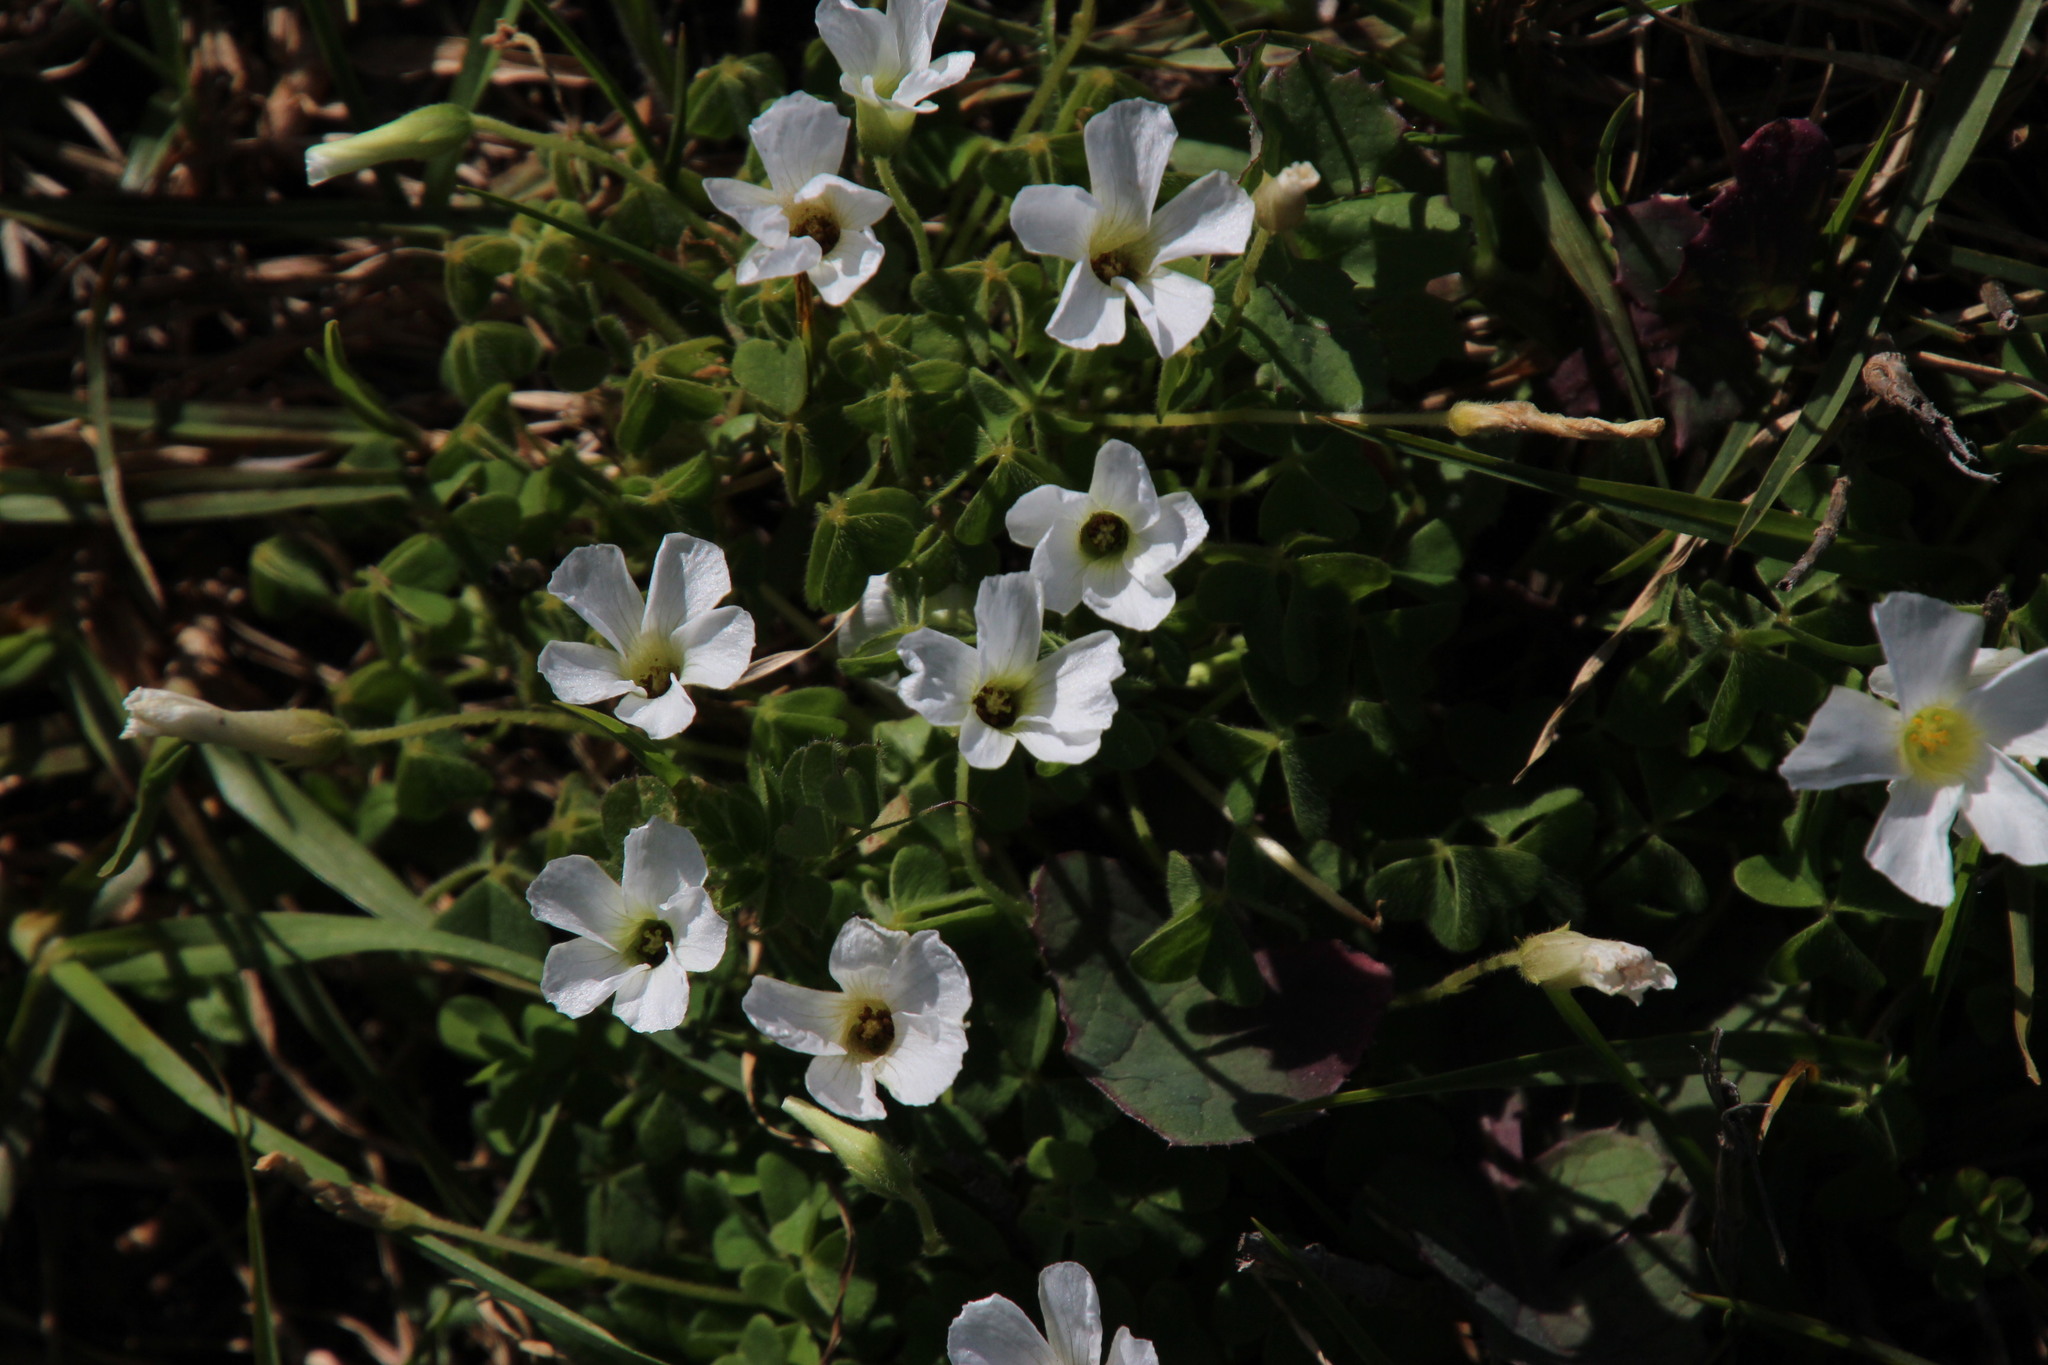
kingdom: Plantae
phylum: Tracheophyta
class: Magnoliopsida
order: Oxalidales
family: Oxalidaceae
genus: Oxalis
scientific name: Oxalis lanata
